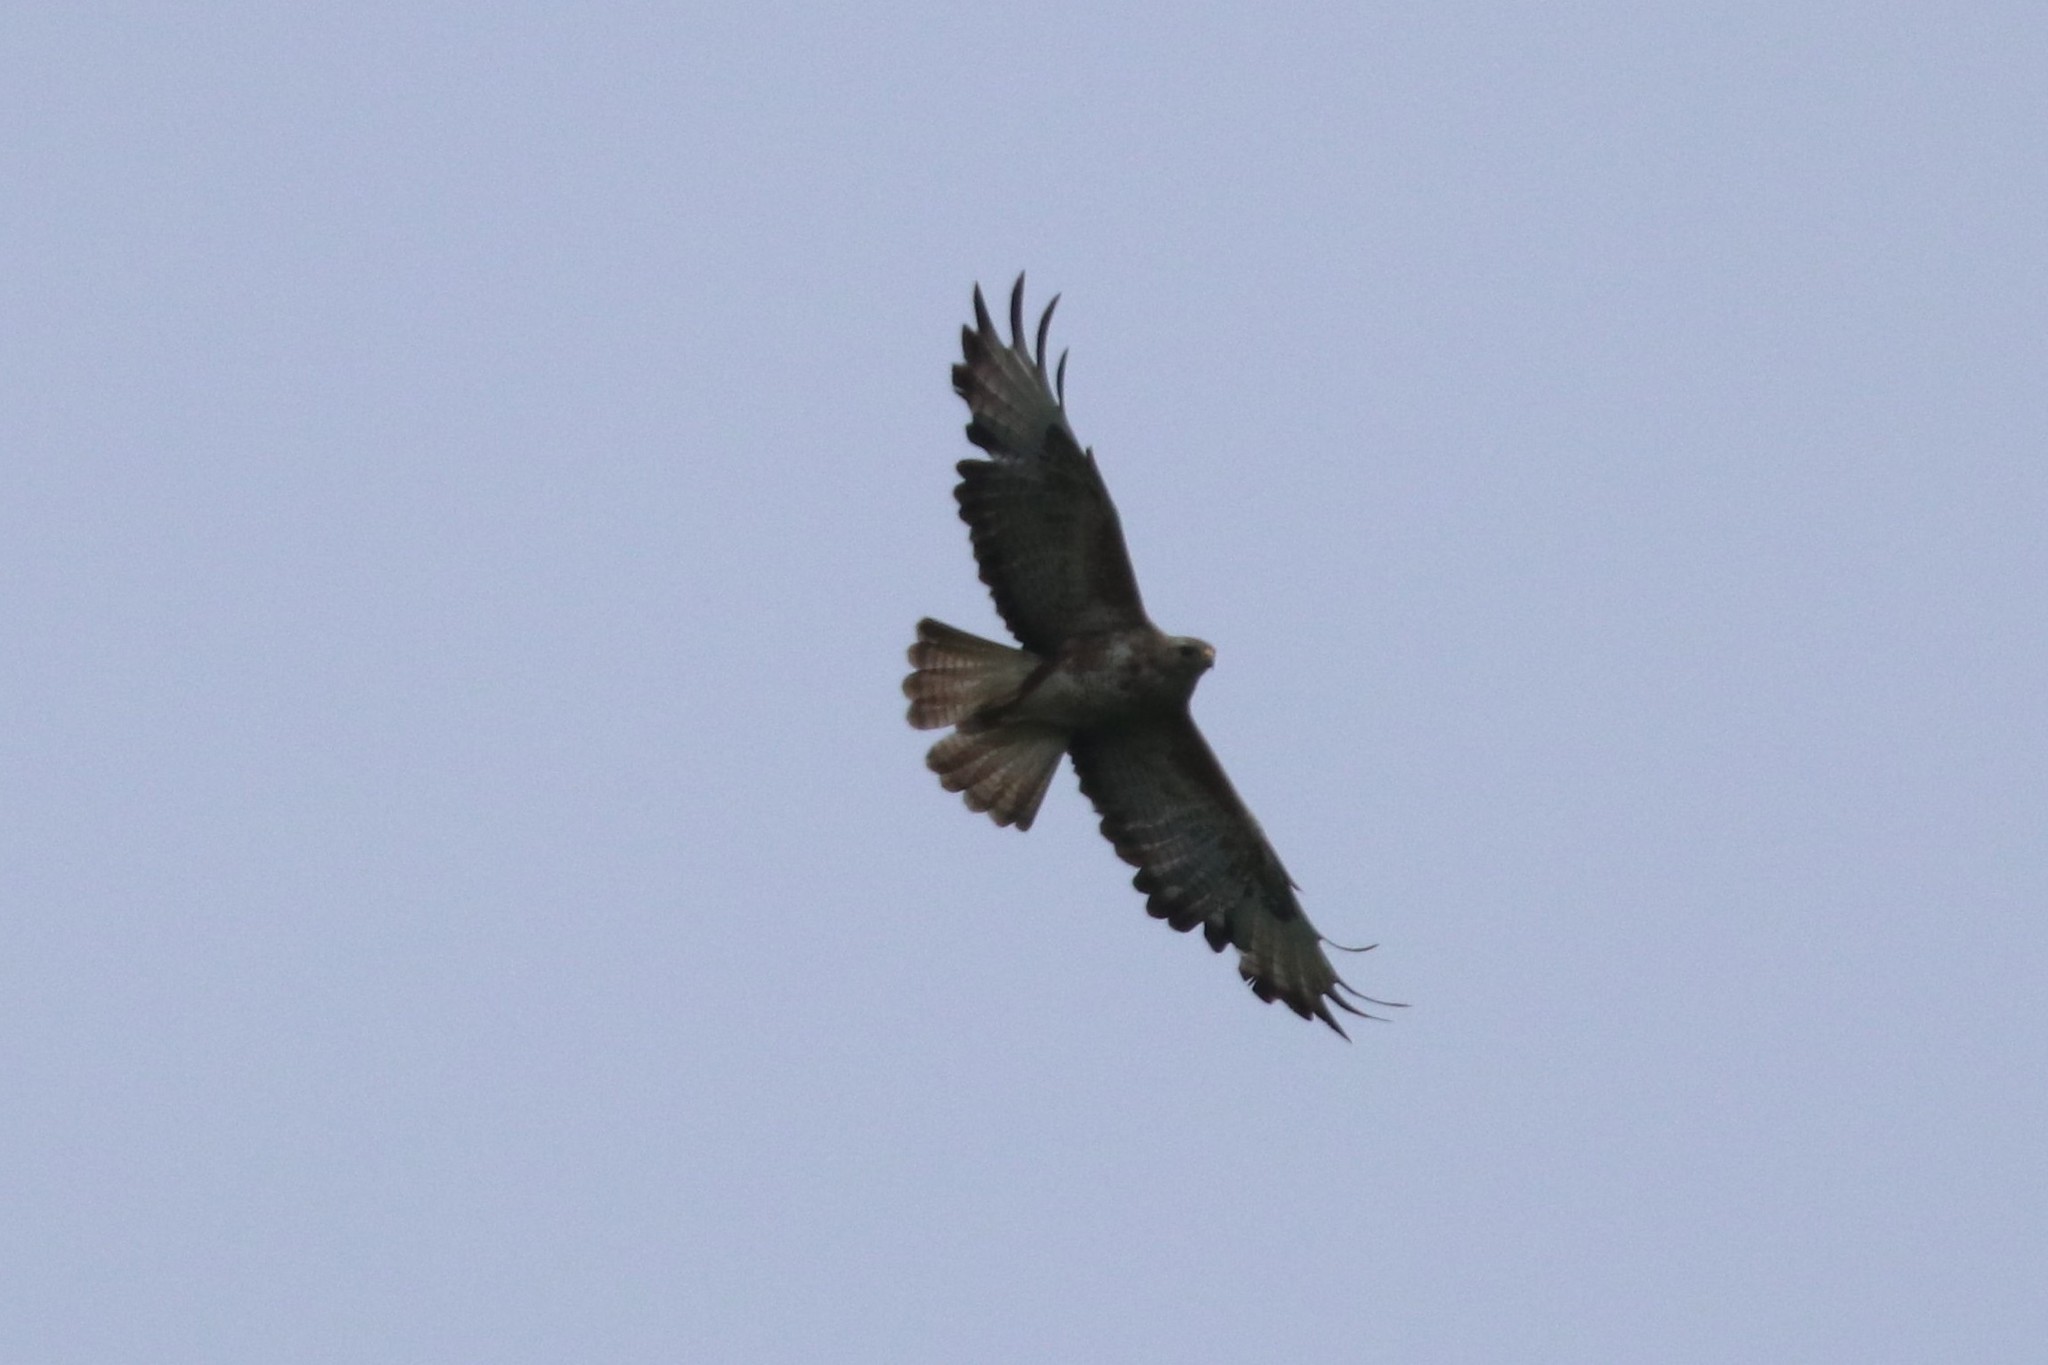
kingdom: Animalia
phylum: Chordata
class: Aves
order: Accipitriformes
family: Accipitridae
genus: Buteo
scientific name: Buteo buteo
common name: Common buzzard
